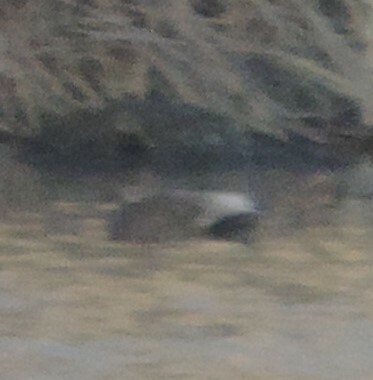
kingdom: Animalia
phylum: Chordata
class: Aves
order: Anseriformes
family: Anatidae
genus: Mareca
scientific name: Mareca strepera
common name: Gadwall
